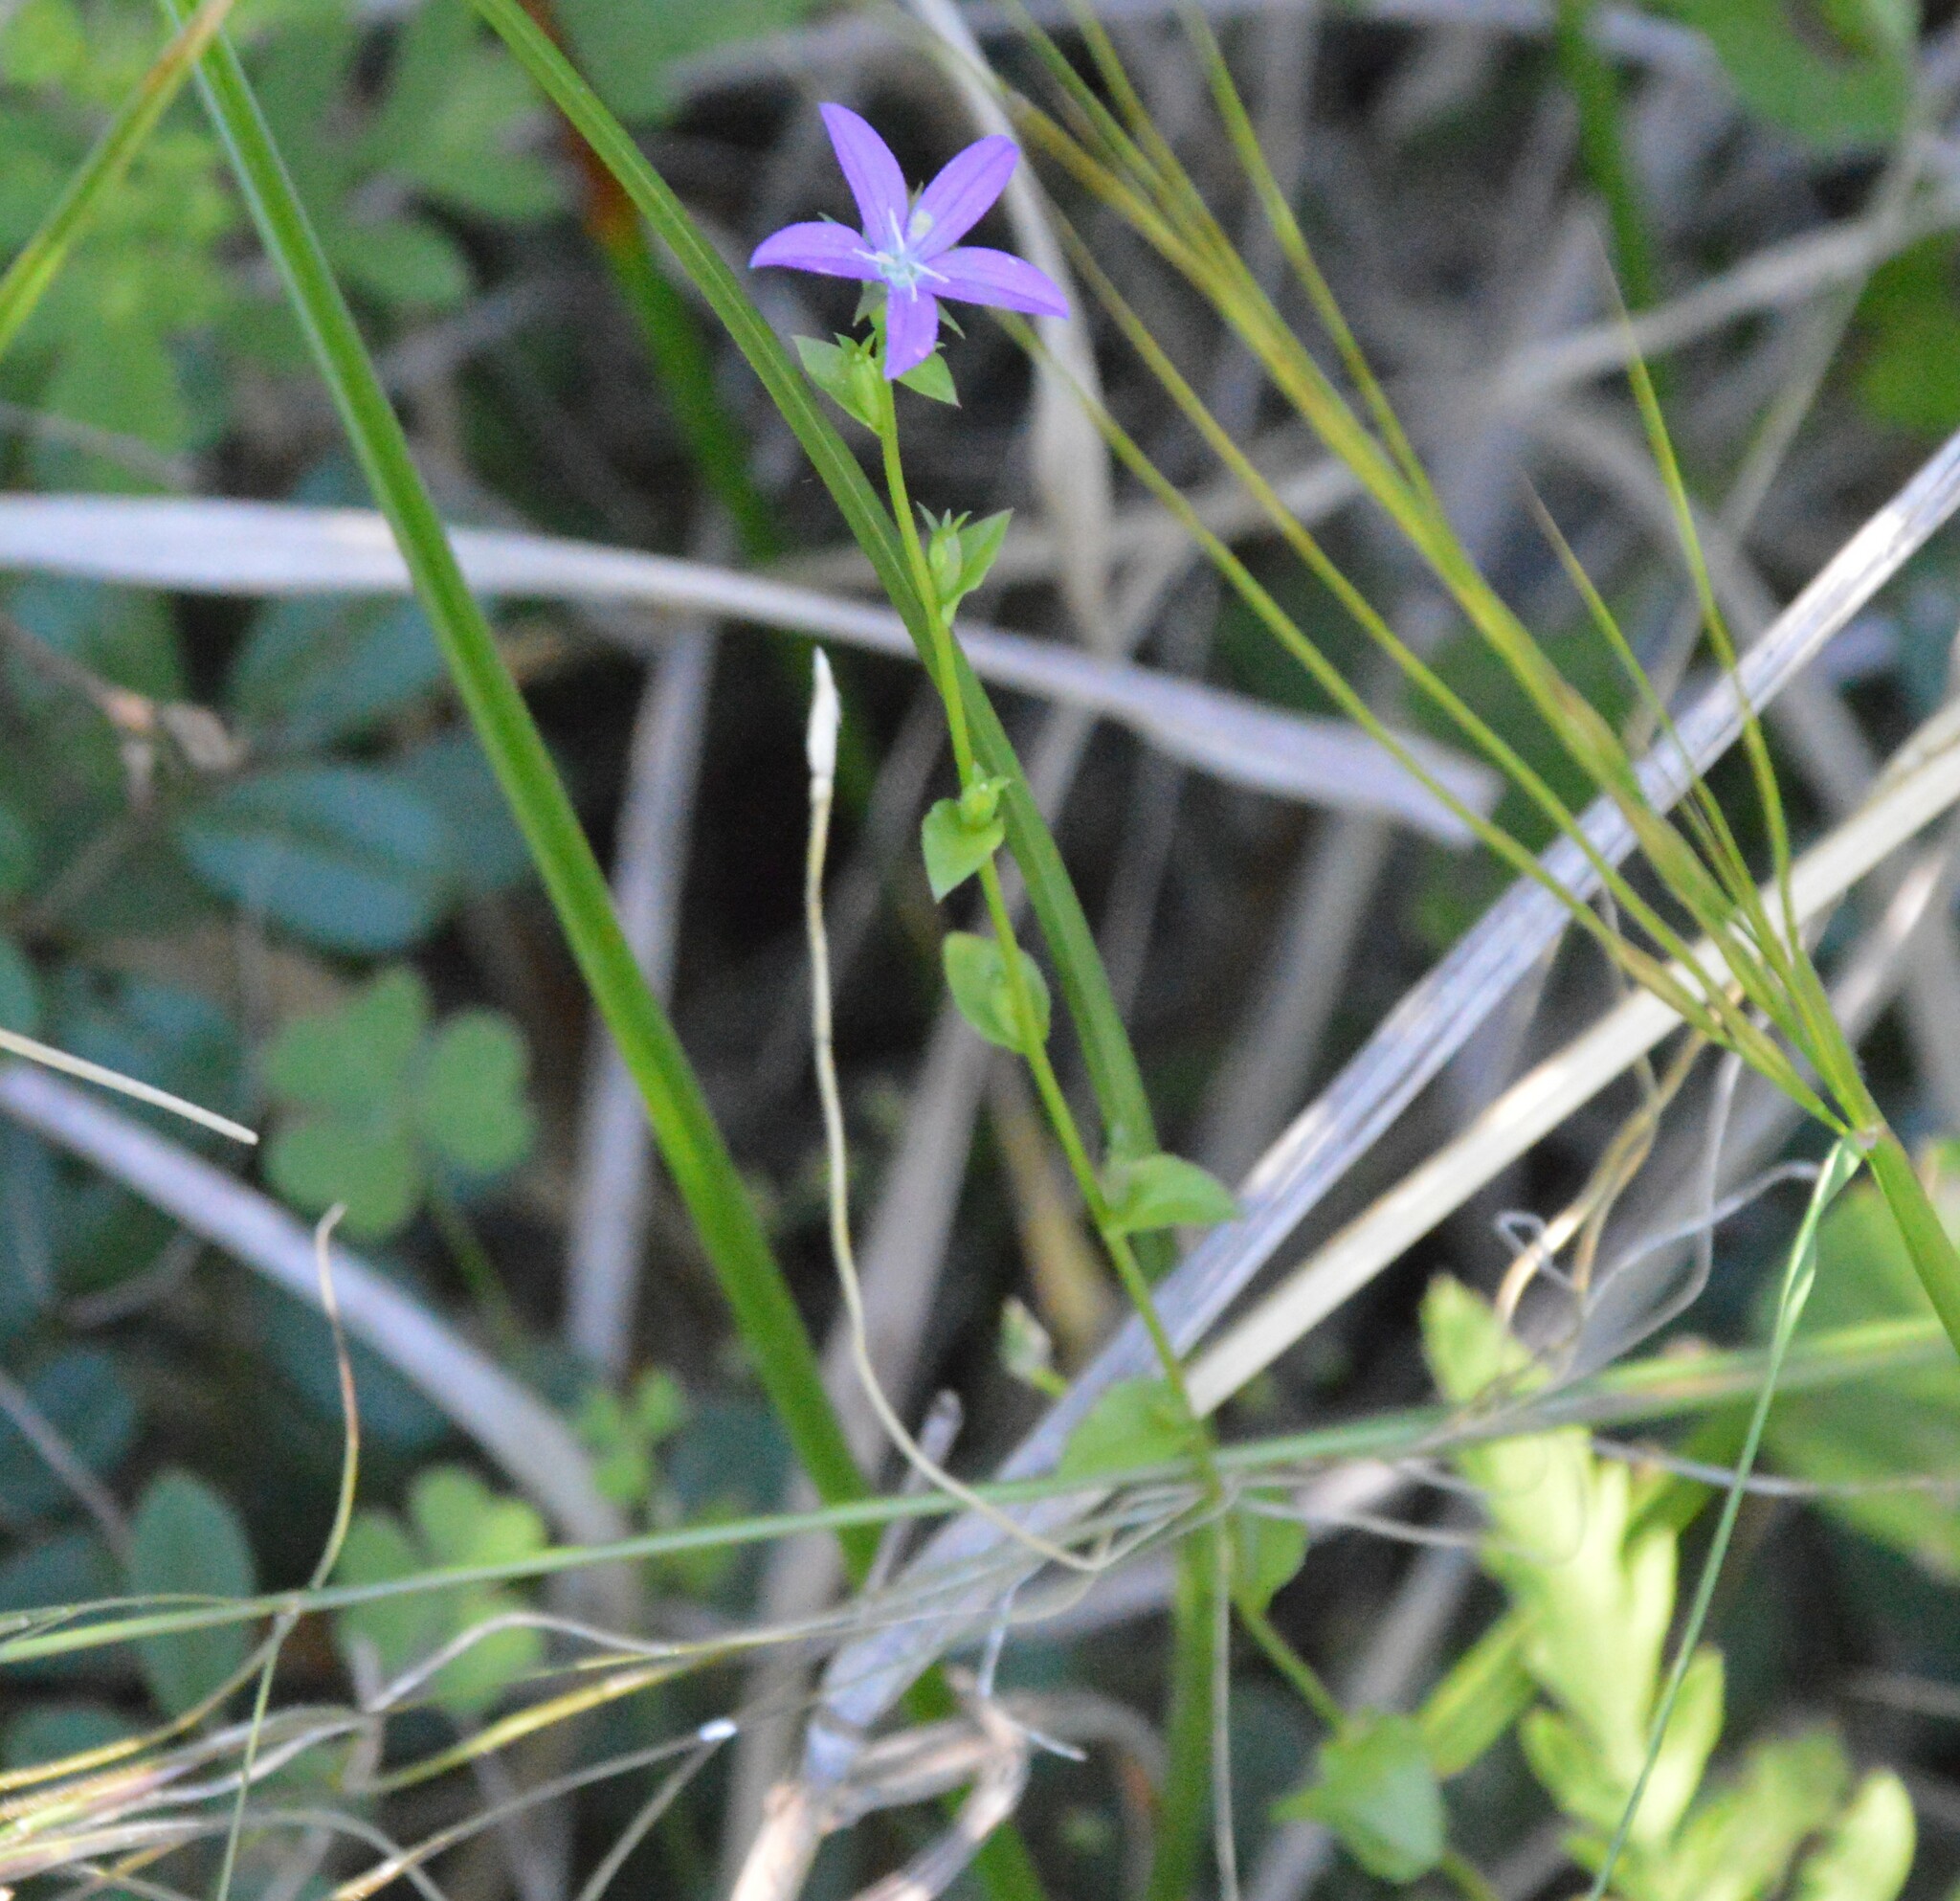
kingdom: Plantae
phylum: Tracheophyta
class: Magnoliopsida
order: Asterales
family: Campanulaceae
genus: Triodanis
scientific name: Triodanis biflora
